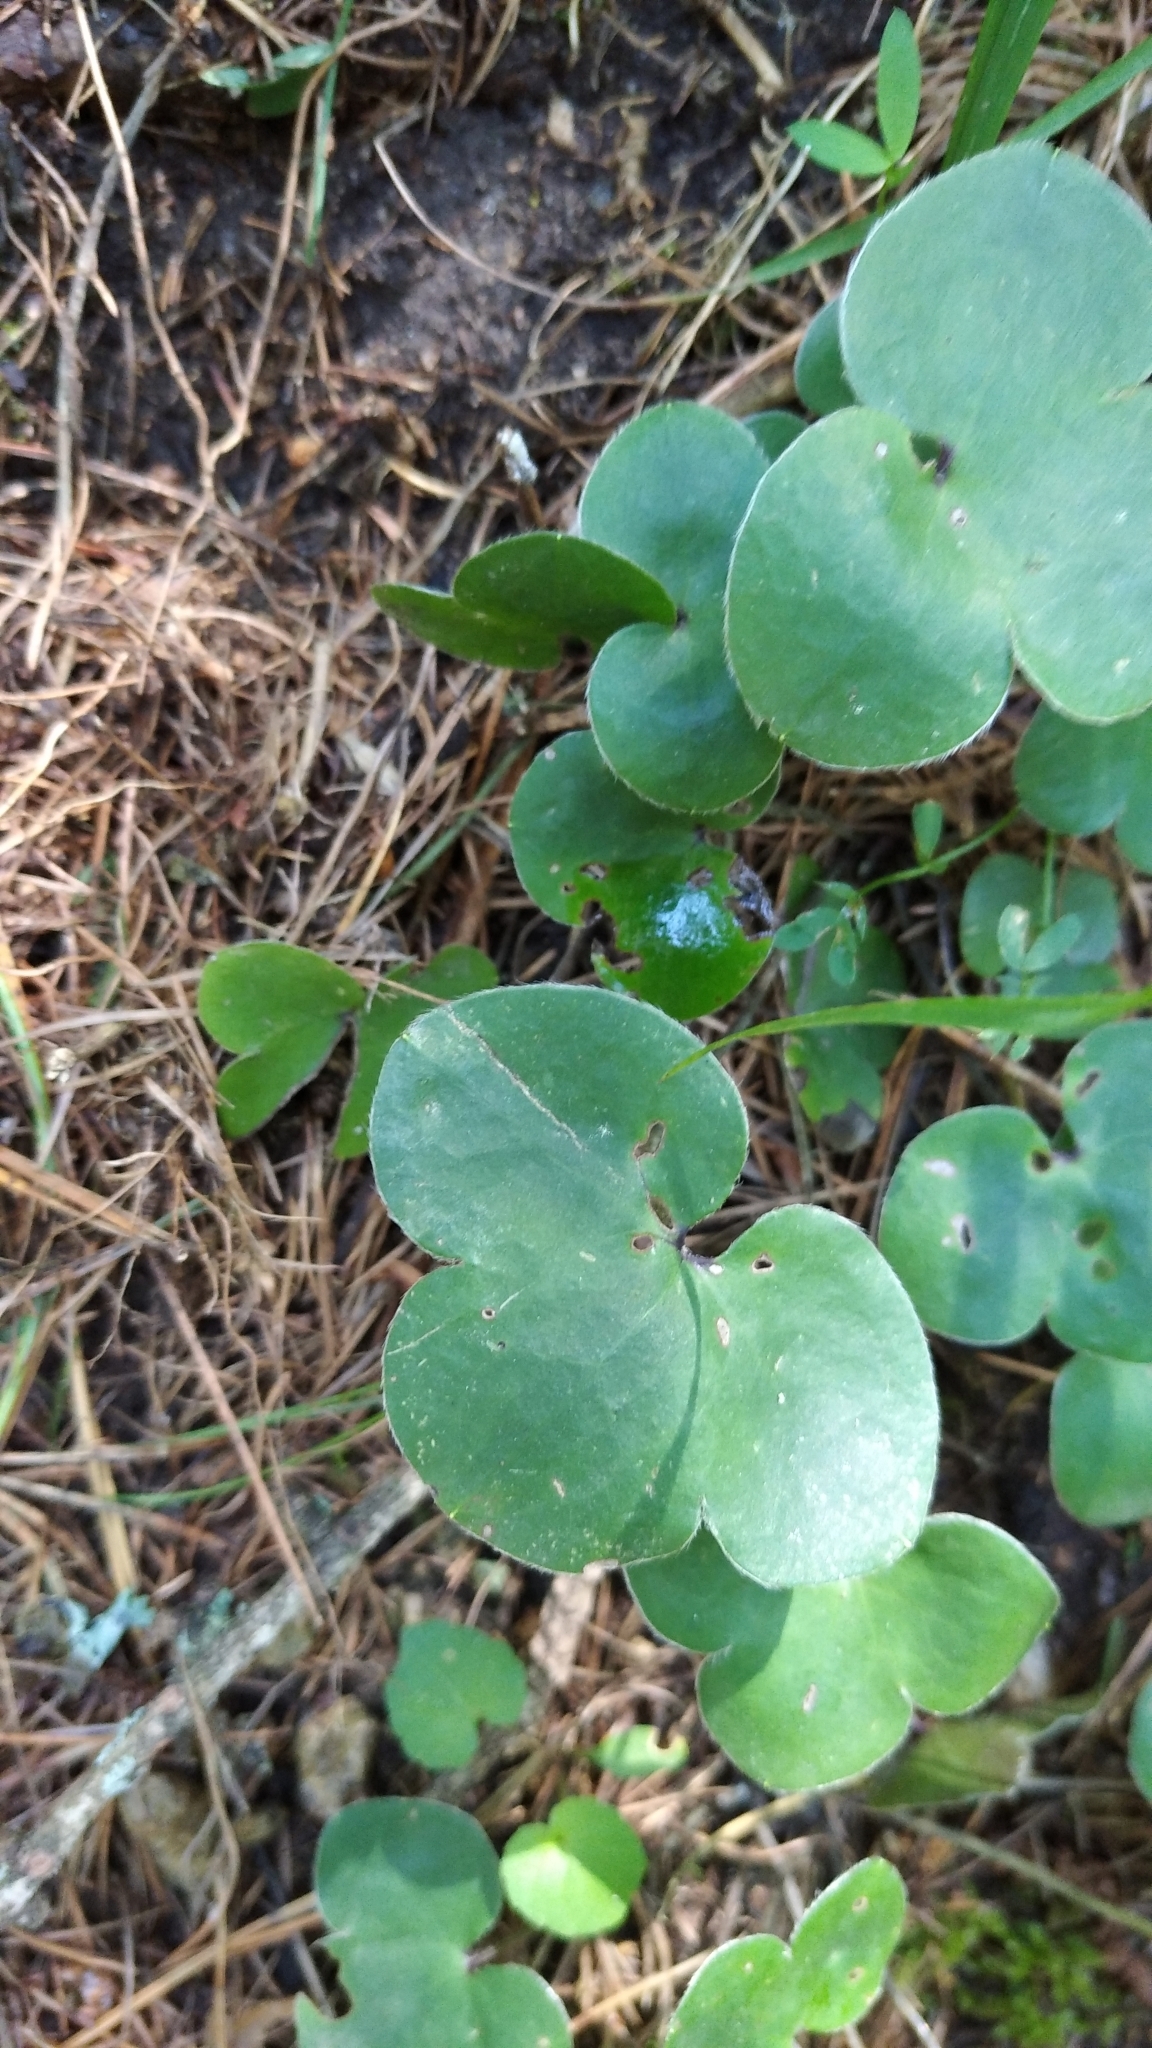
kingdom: Plantae
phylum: Tracheophyta
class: Magnoliopsida
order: Ranunculales
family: Ranunculaceae
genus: Hepatica
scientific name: Hepatica nobilis
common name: Liverleaf
